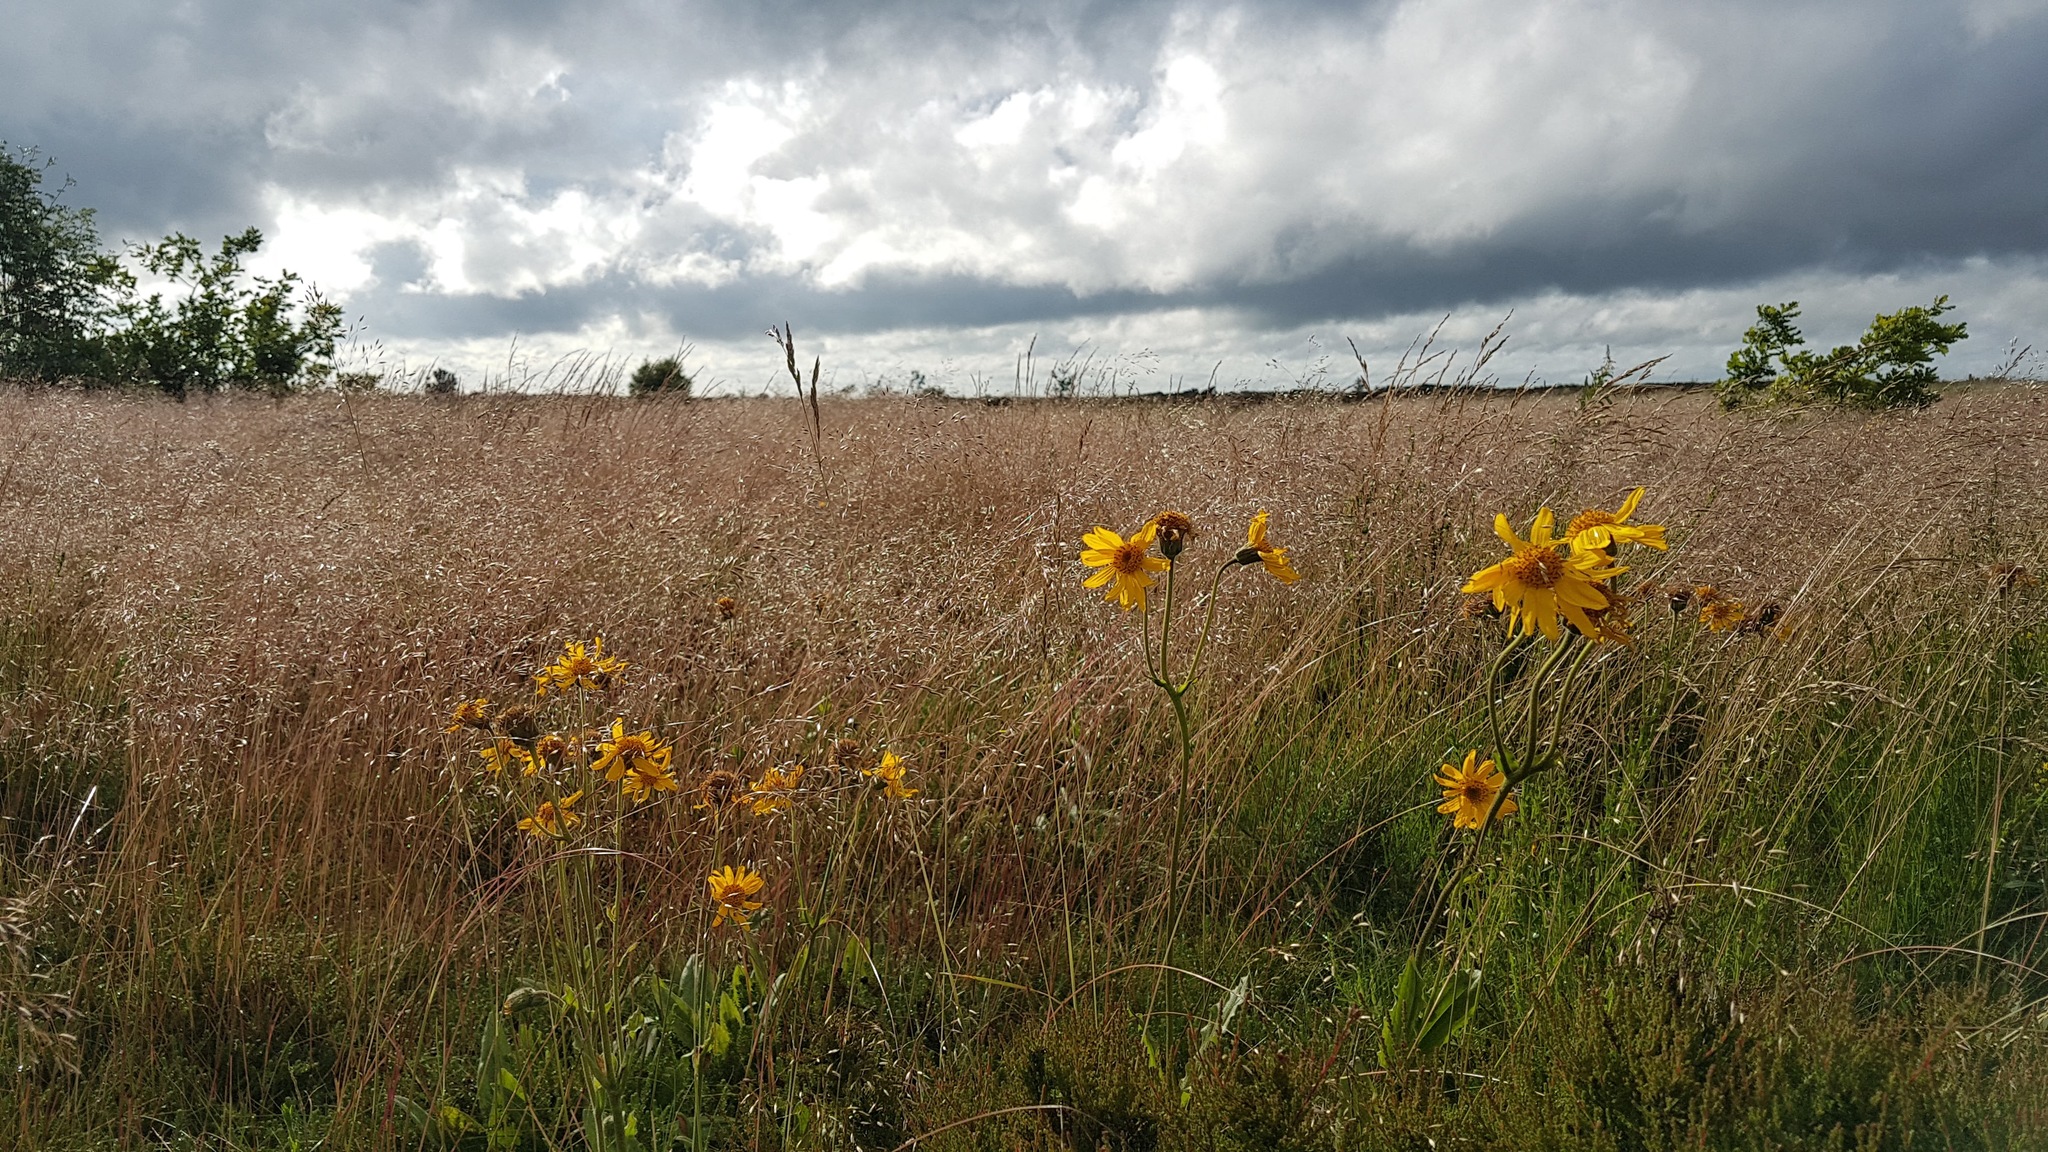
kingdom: Plantae
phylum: Tracheophyta
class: Magnoliopsida
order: Asterales
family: Asteraceae
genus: Arnica
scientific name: Arnica montana
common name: Leopard's bane
